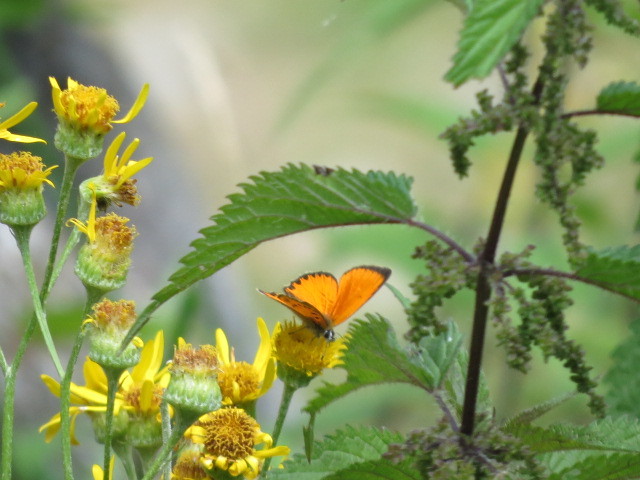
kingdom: Animalia
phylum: Arthropoda
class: Insecta
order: Lepidoptera
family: Lycaenidae
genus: Lycaena
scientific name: Lycaena virgaureae
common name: Scarce copper
